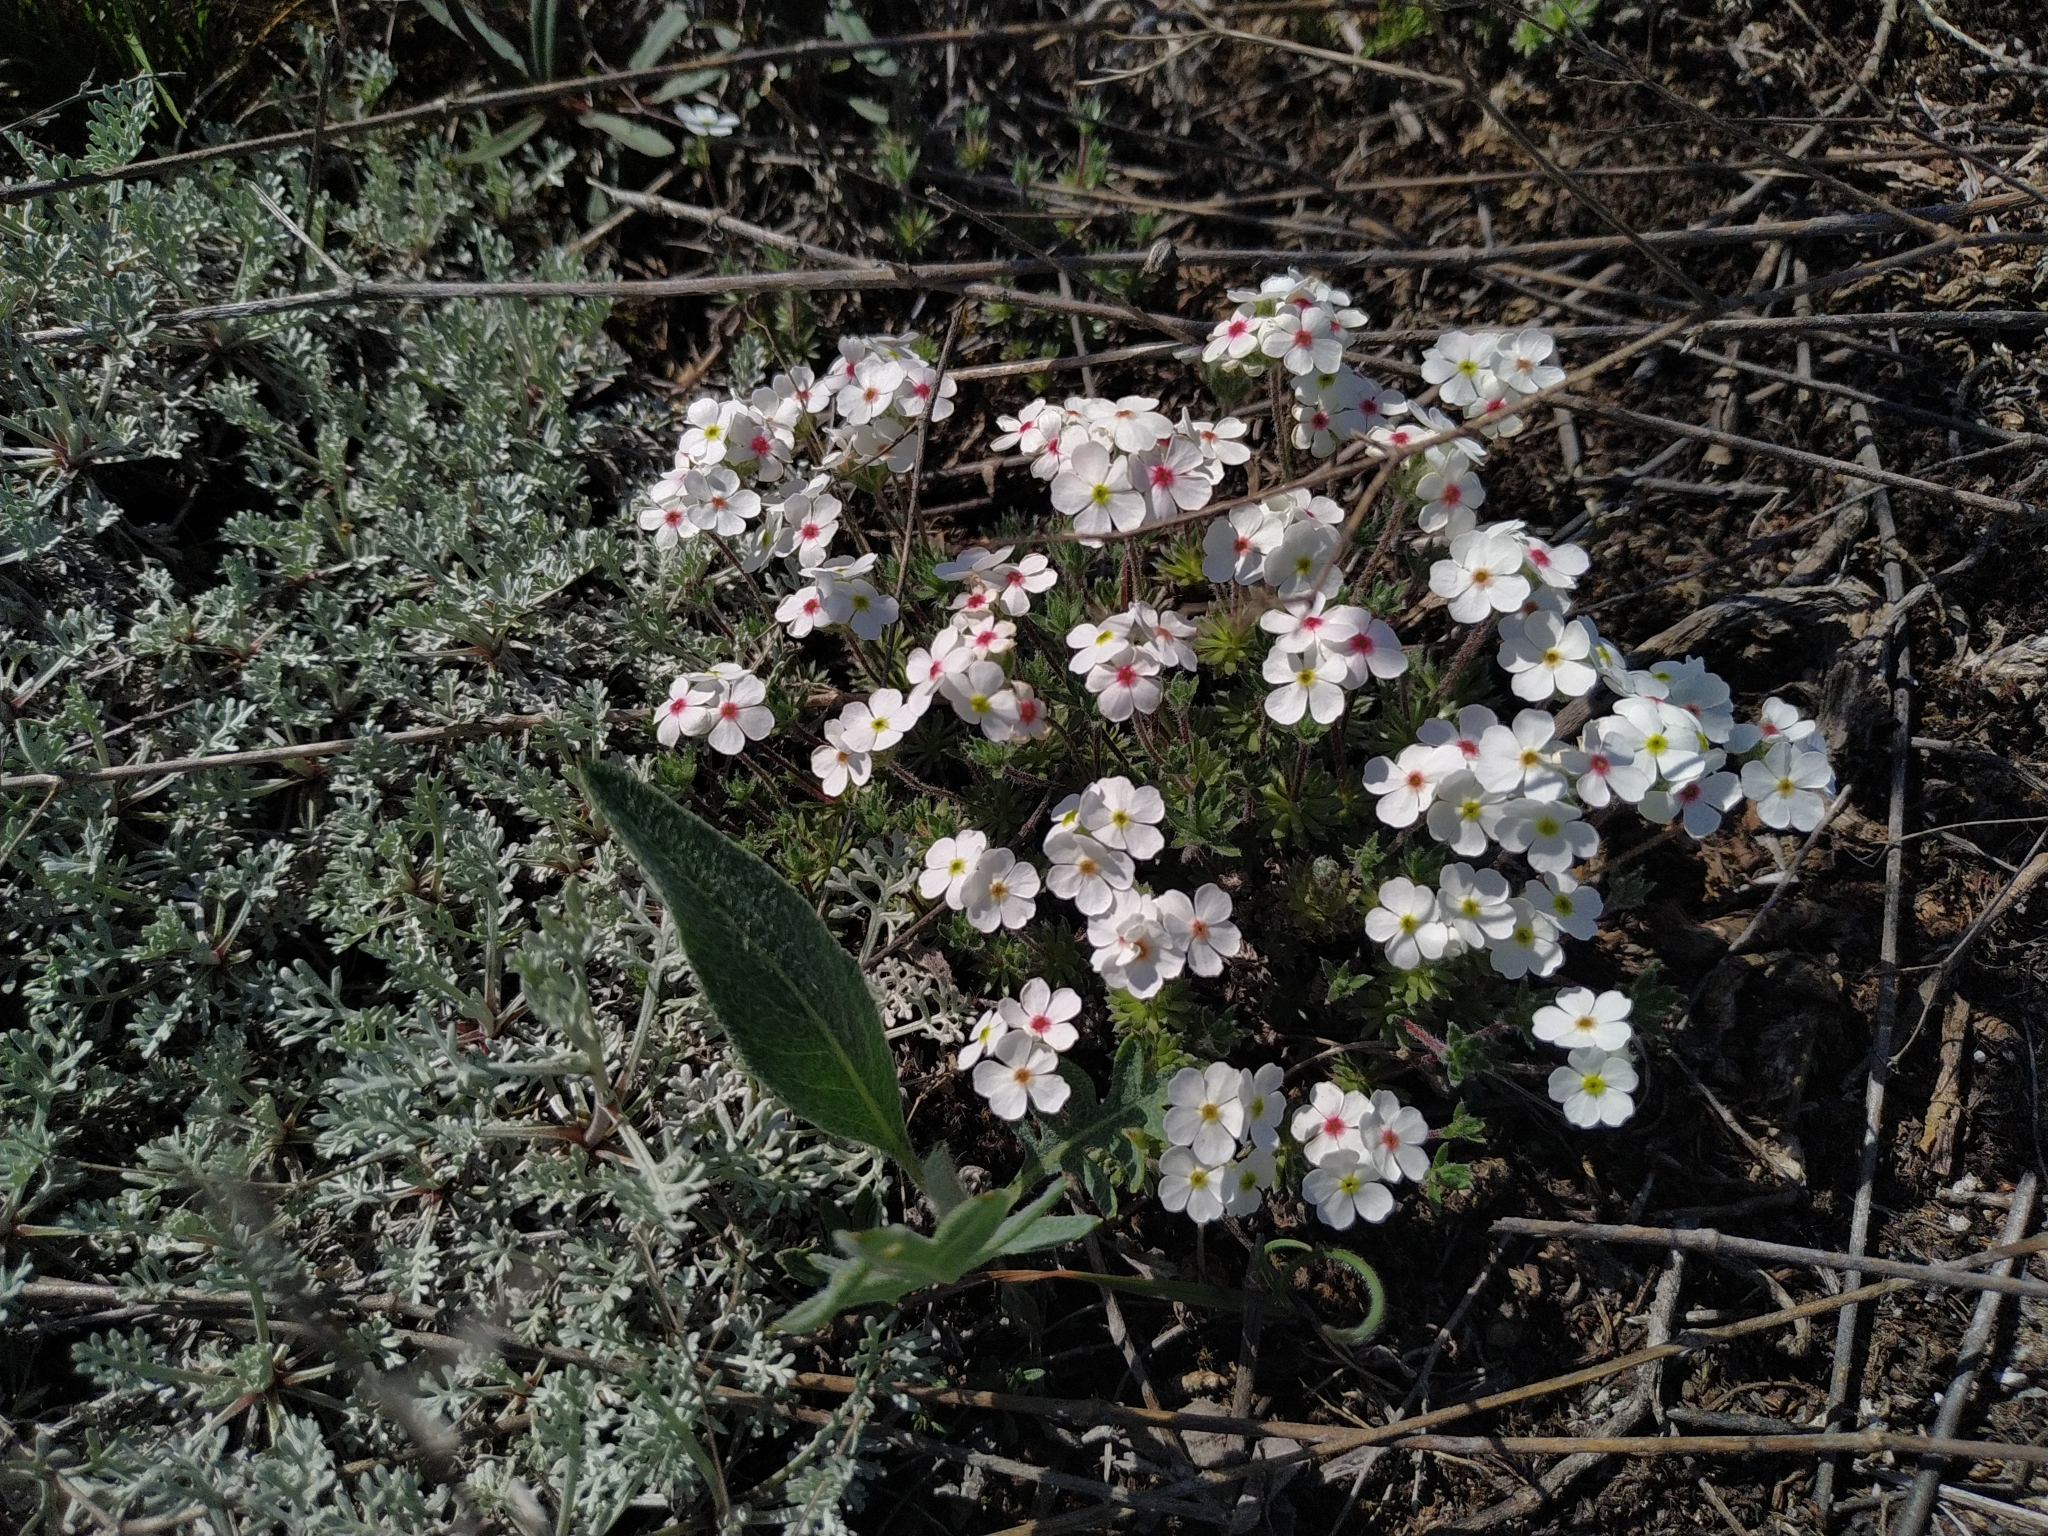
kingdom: Plantae
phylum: Tracheophyta
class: Magnoliopsida
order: Ericales
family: Primulaceae
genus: Androsace
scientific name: Androsace villosa
